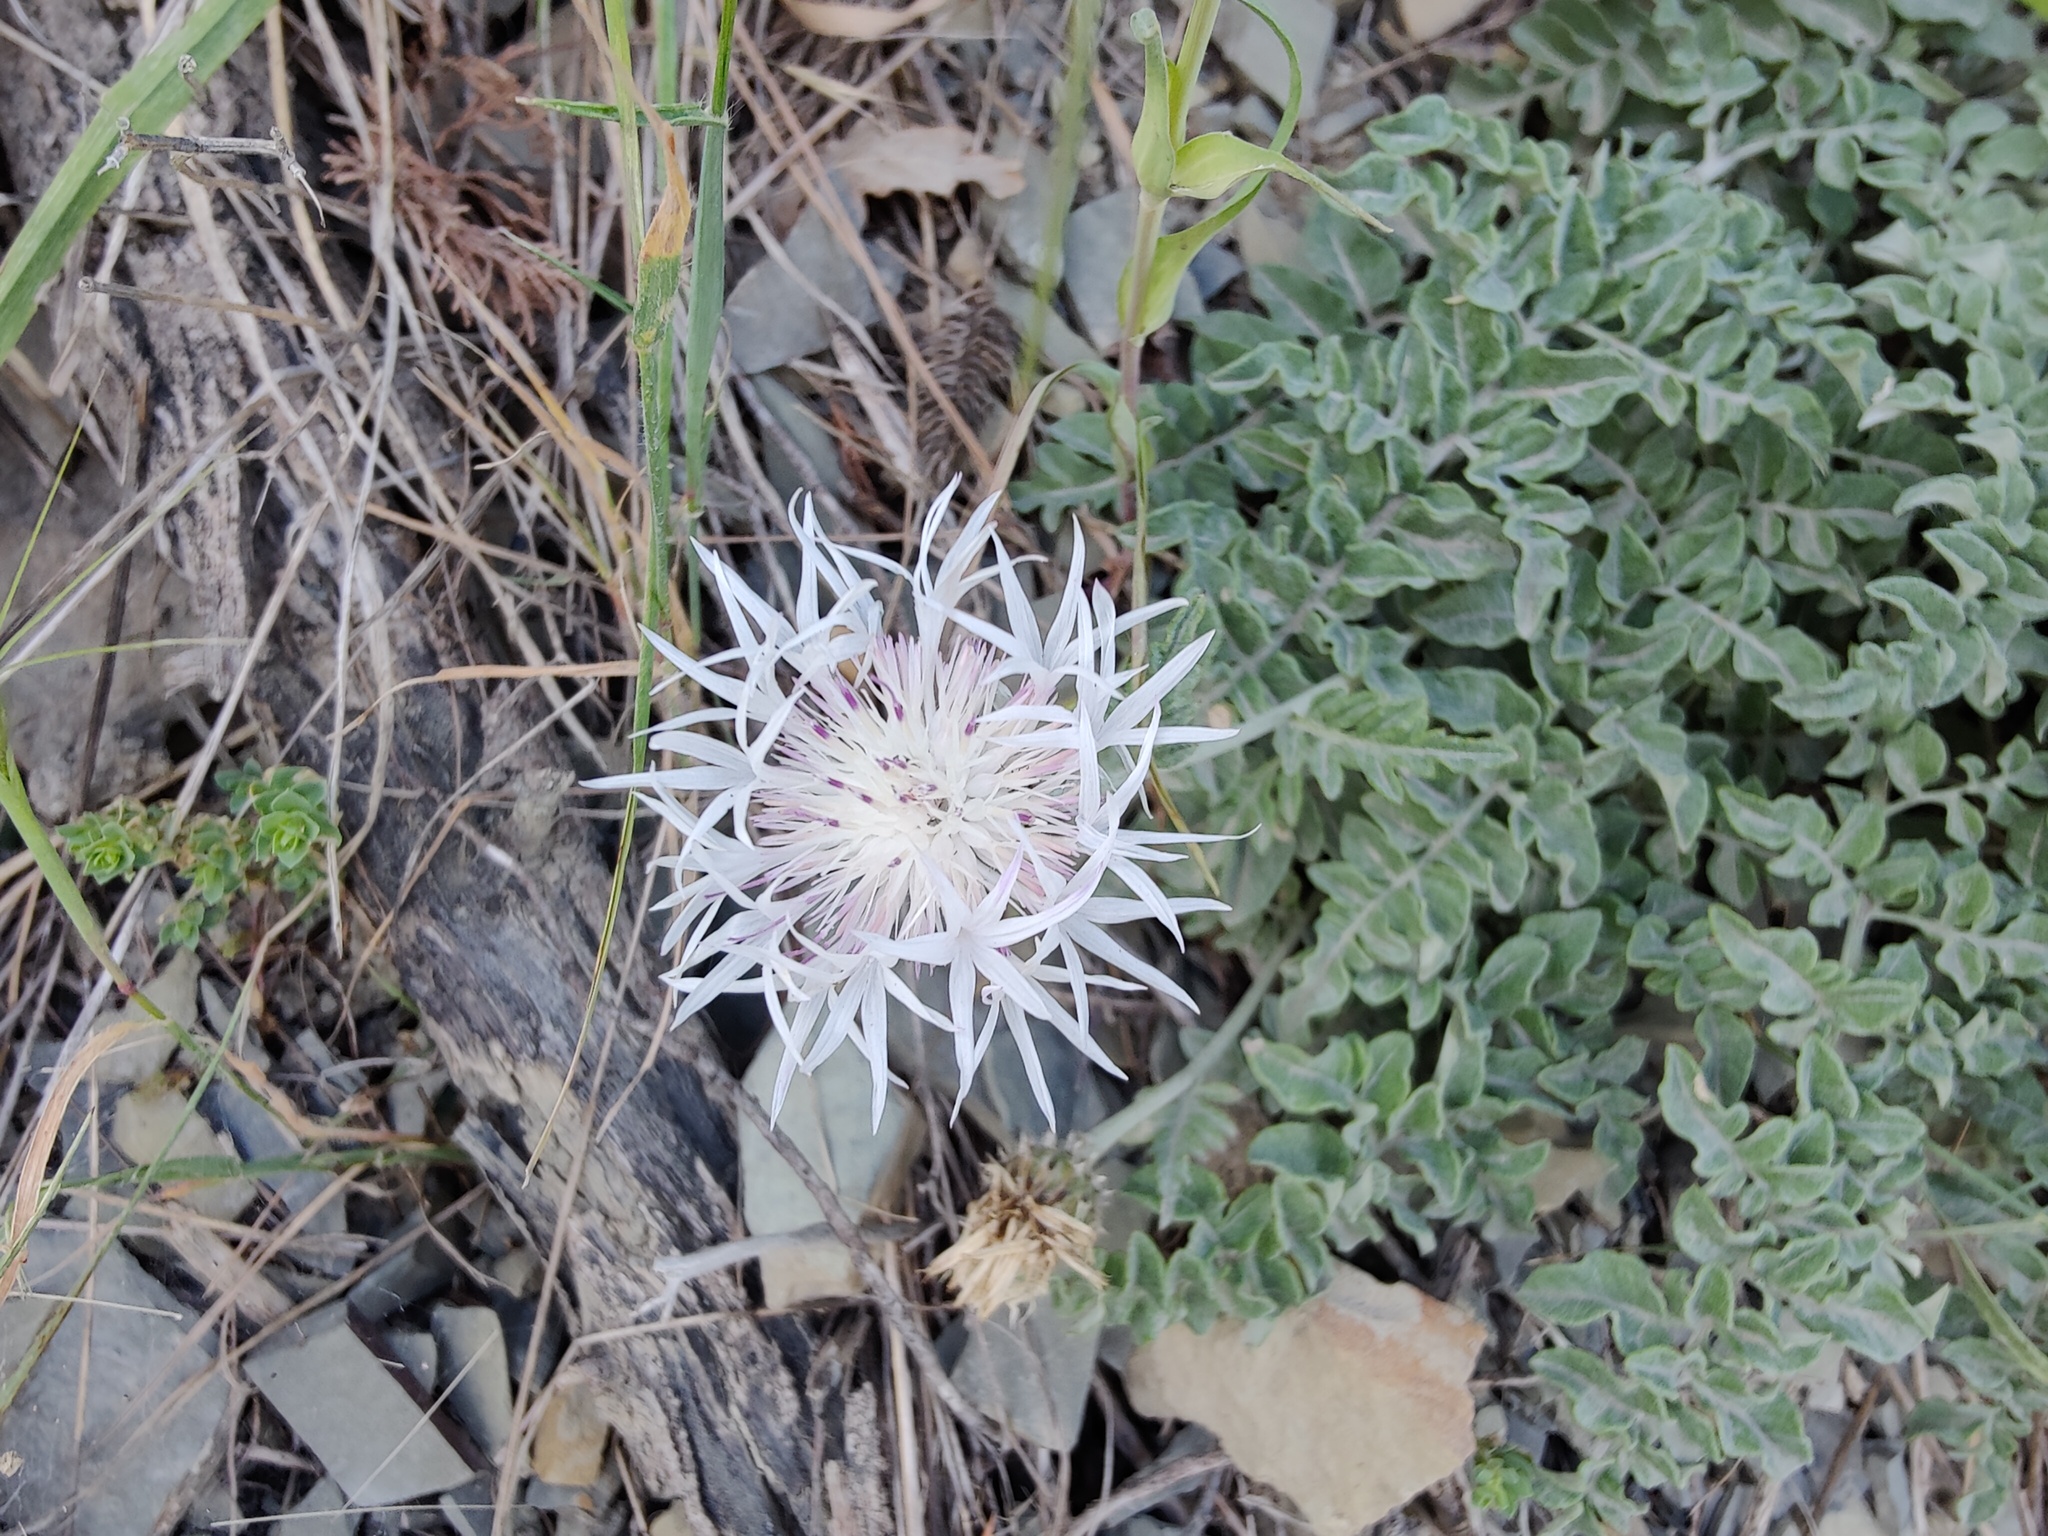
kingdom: Plantae
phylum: Tracheophyta
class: Magnoliopsida
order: Asterales
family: Asteraceae
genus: Psephellus
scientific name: Psephellus declinatus
